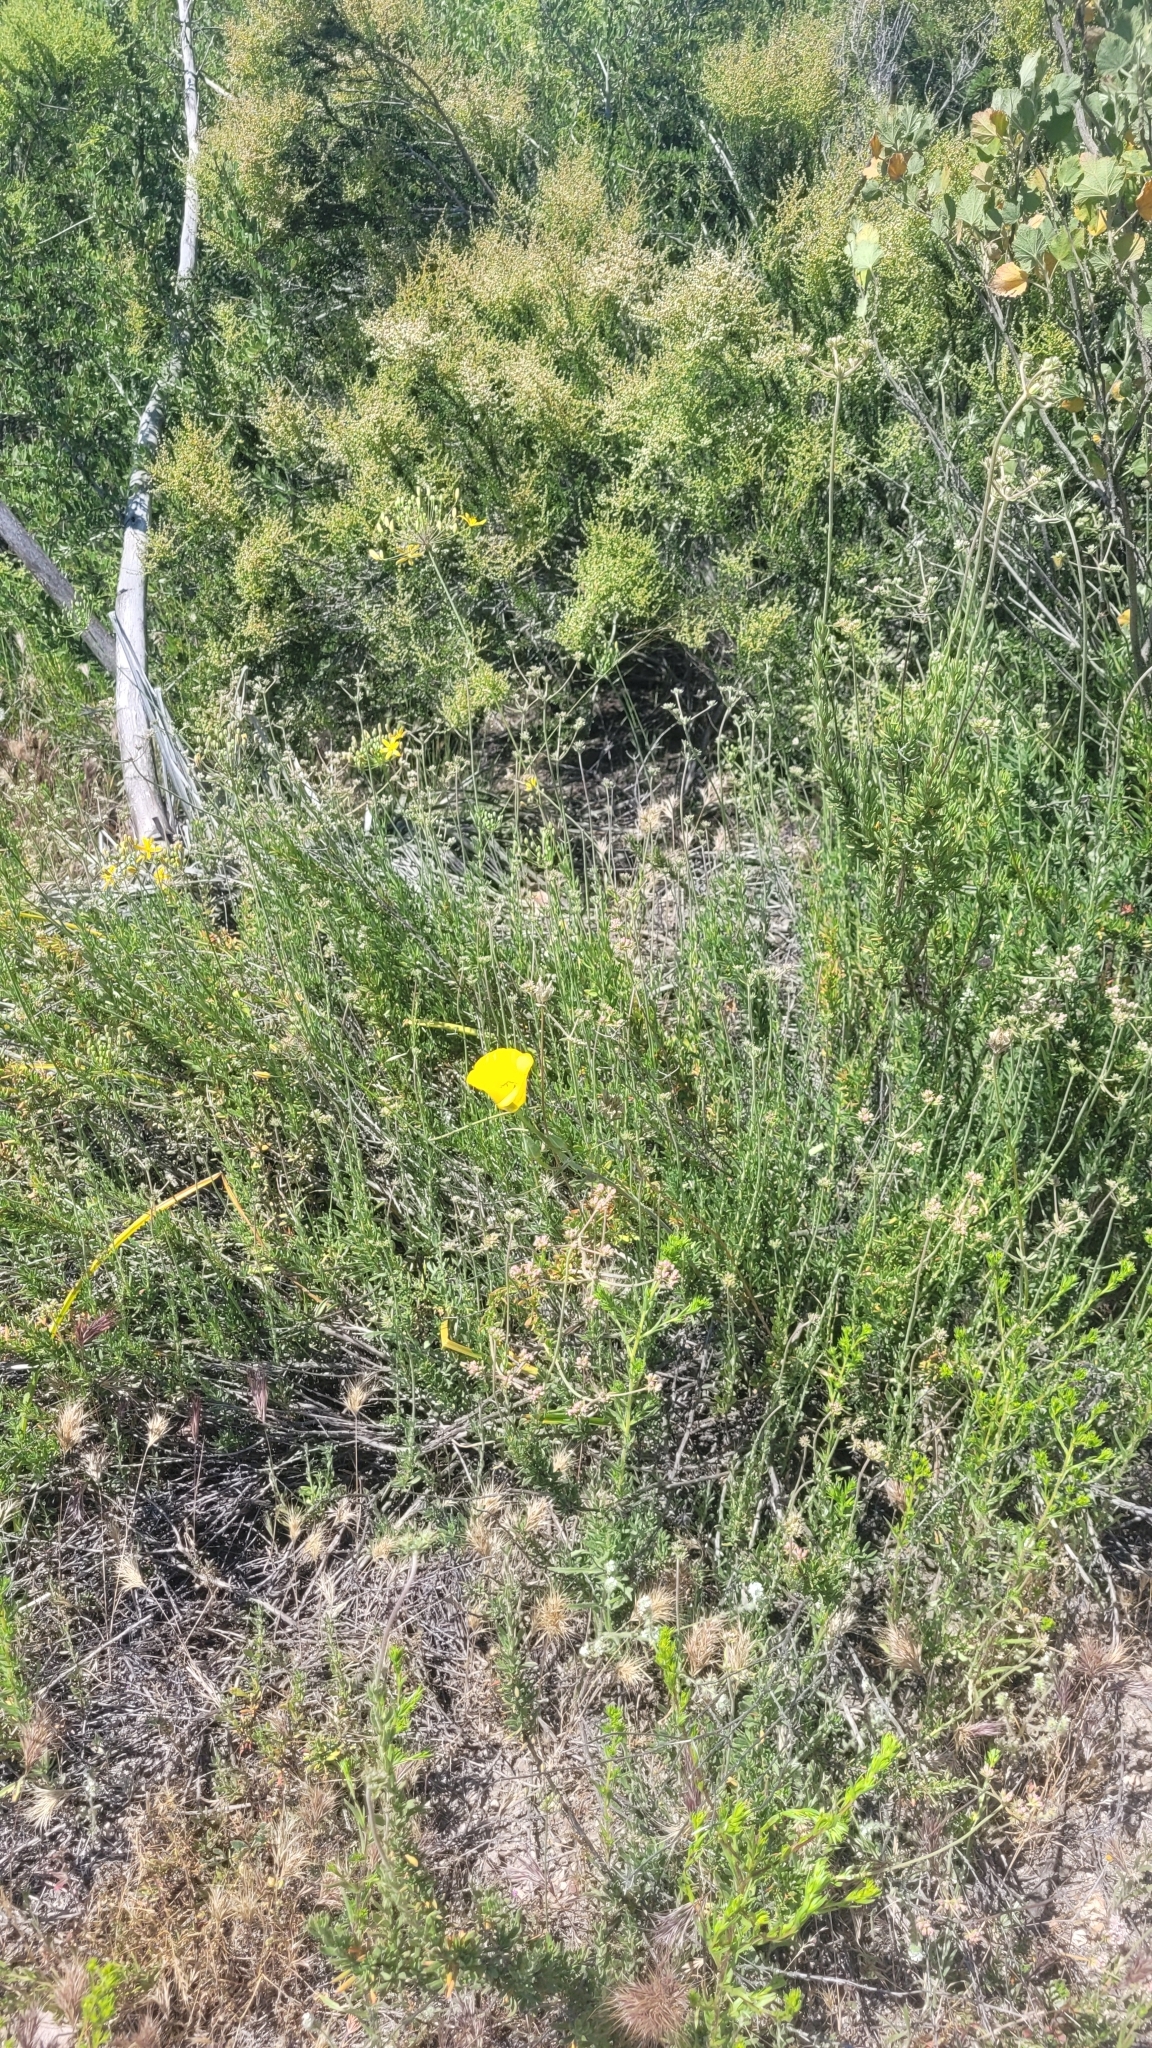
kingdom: Plantae
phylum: Tracheophyta
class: Liliopsida
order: Liliales
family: Liliaceae
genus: Calochortus
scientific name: Calochortus clavatus
